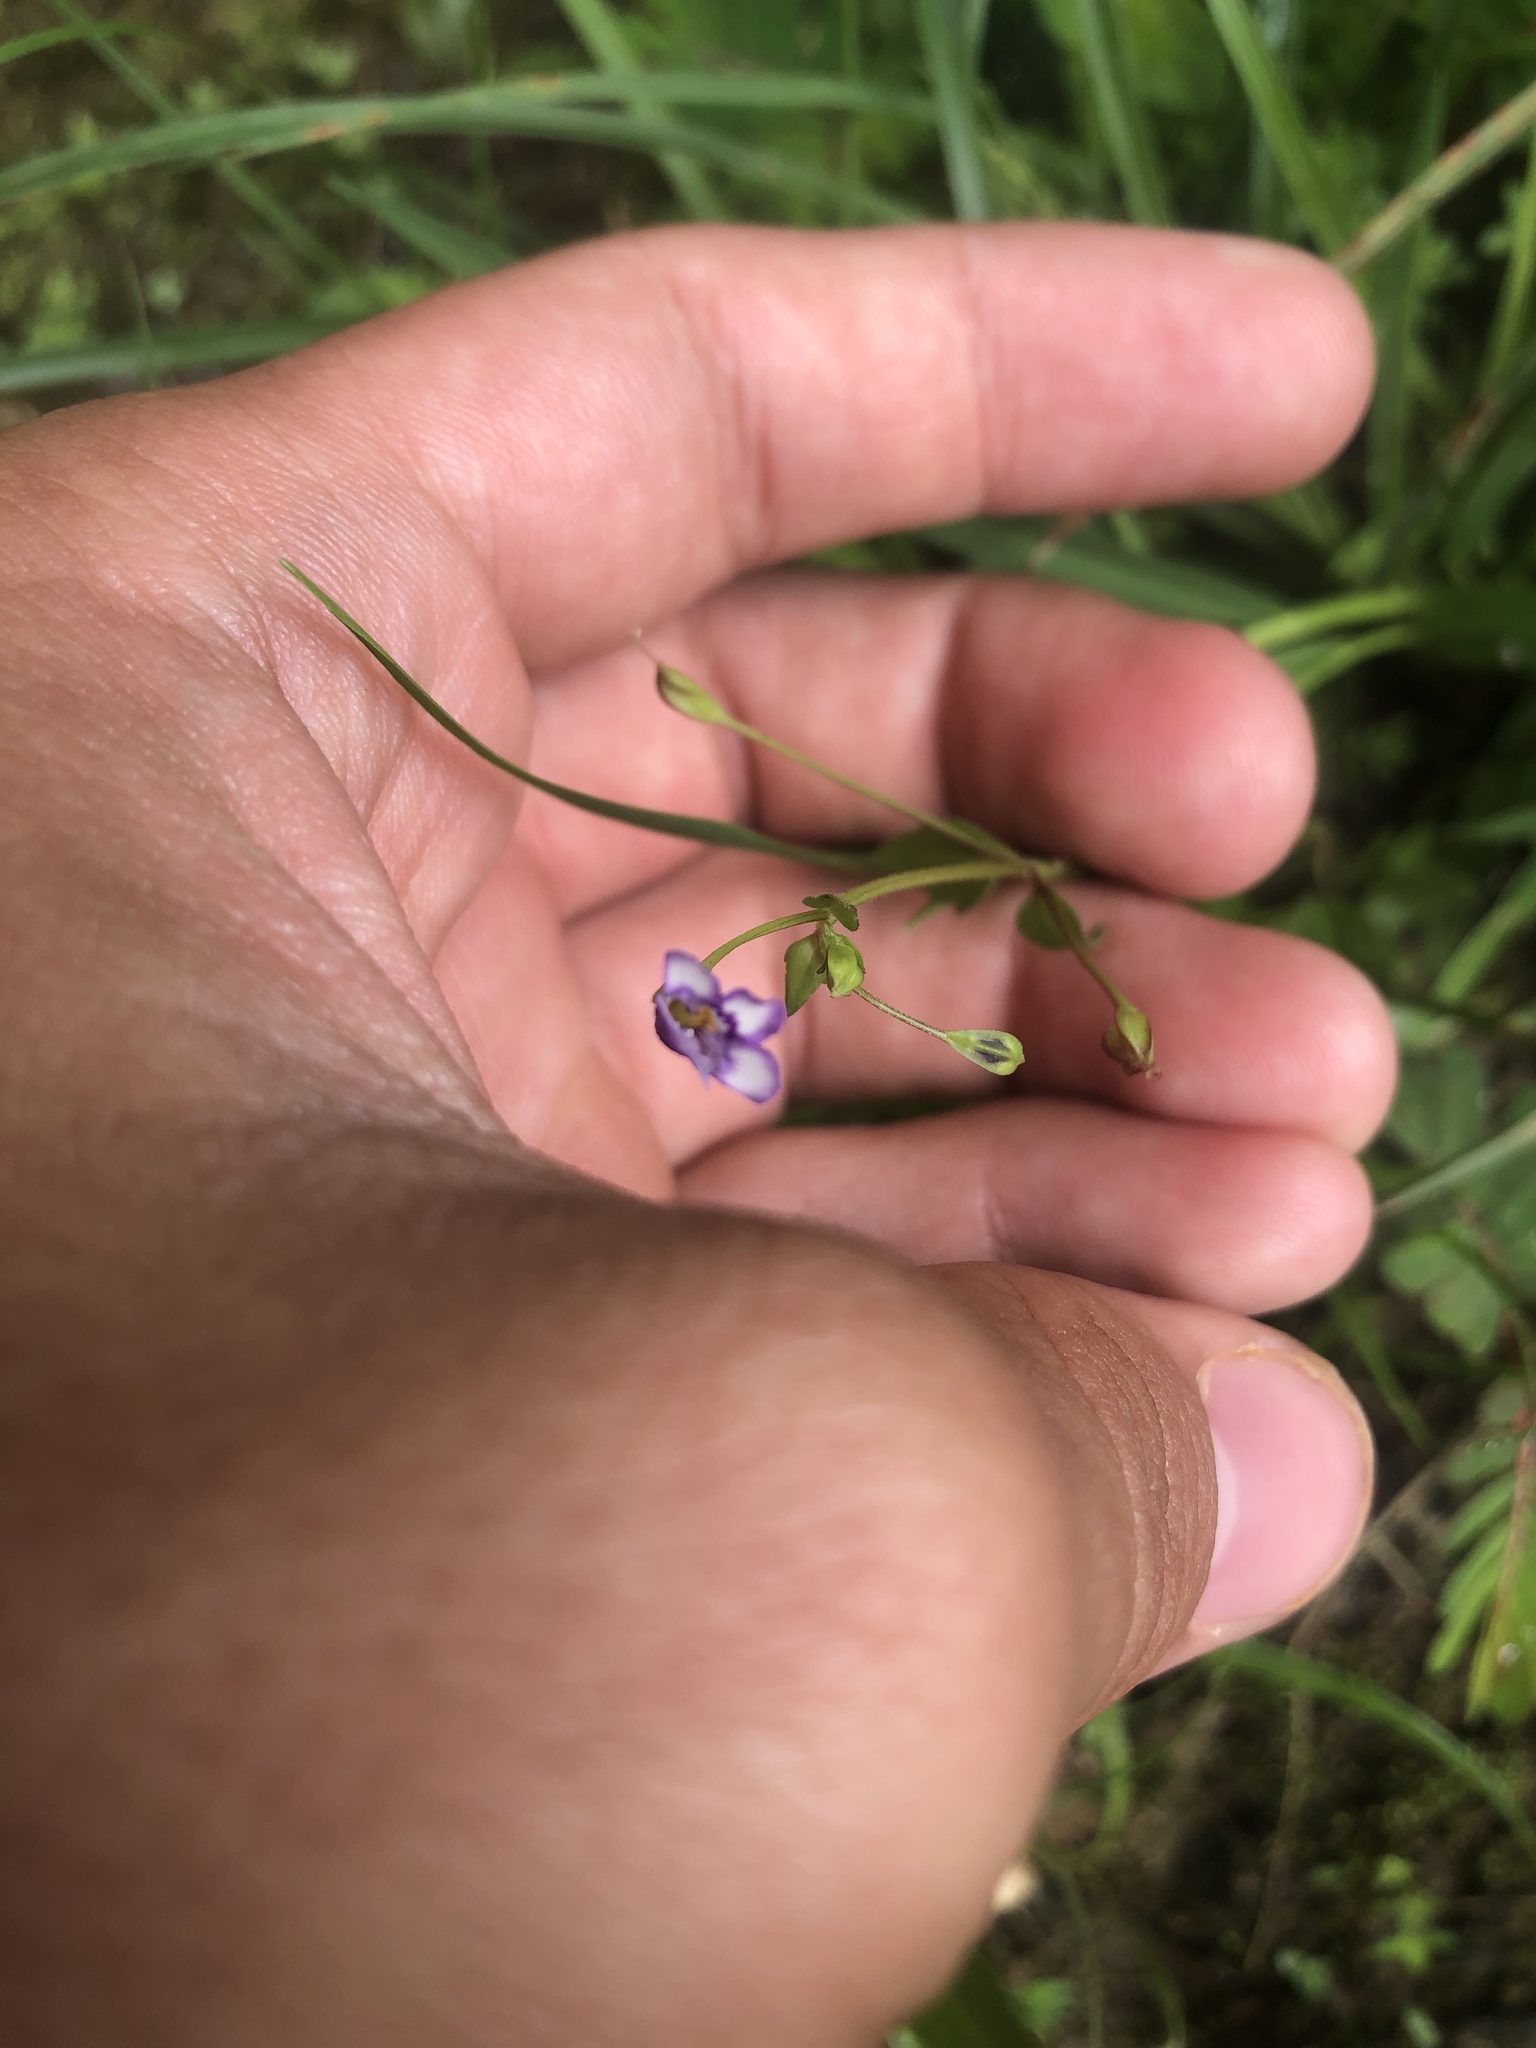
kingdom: Plantae
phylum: Tracheophyta
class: Magnoliopsida
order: Lamiales
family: Linderniaceae
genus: Torenia
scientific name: Torenia crustacea
